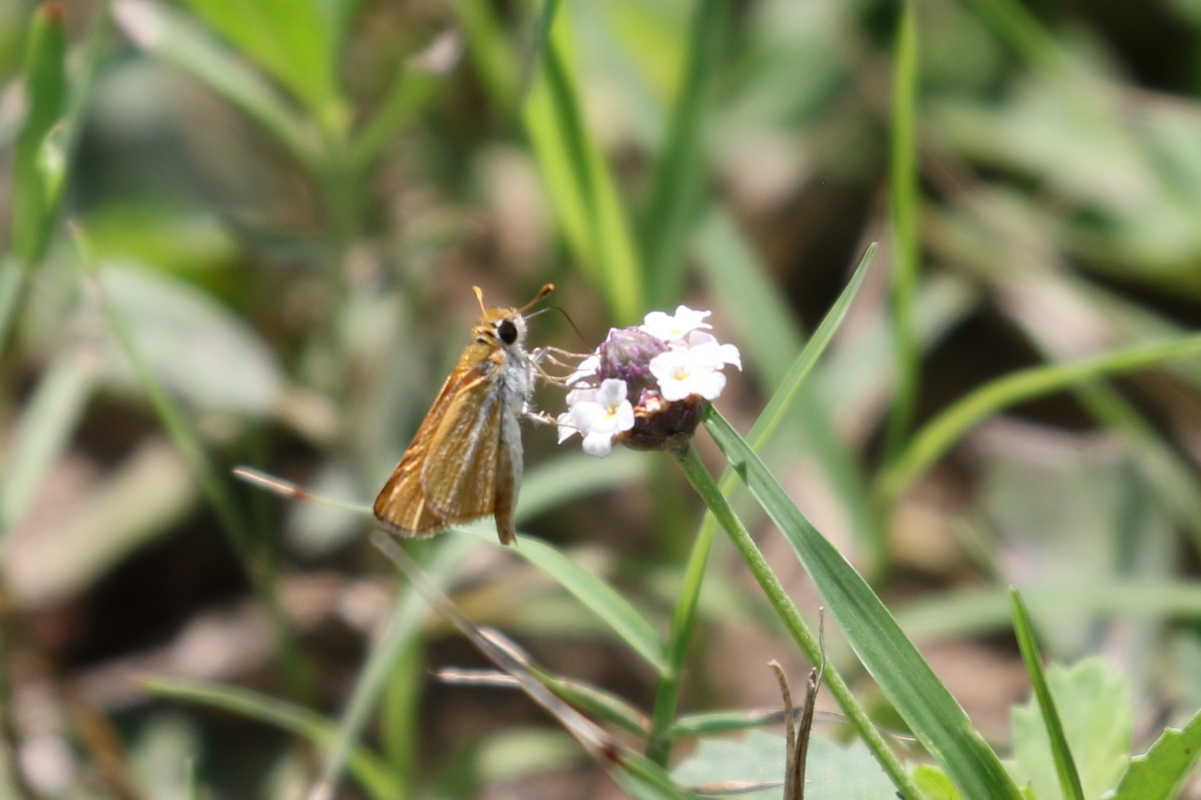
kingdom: Animalia
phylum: Arthropoda
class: Insecta
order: Lepidoptera
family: Hesperiidae
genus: Copaeodes
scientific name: Copaeodes minima
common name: Southern skipperling
